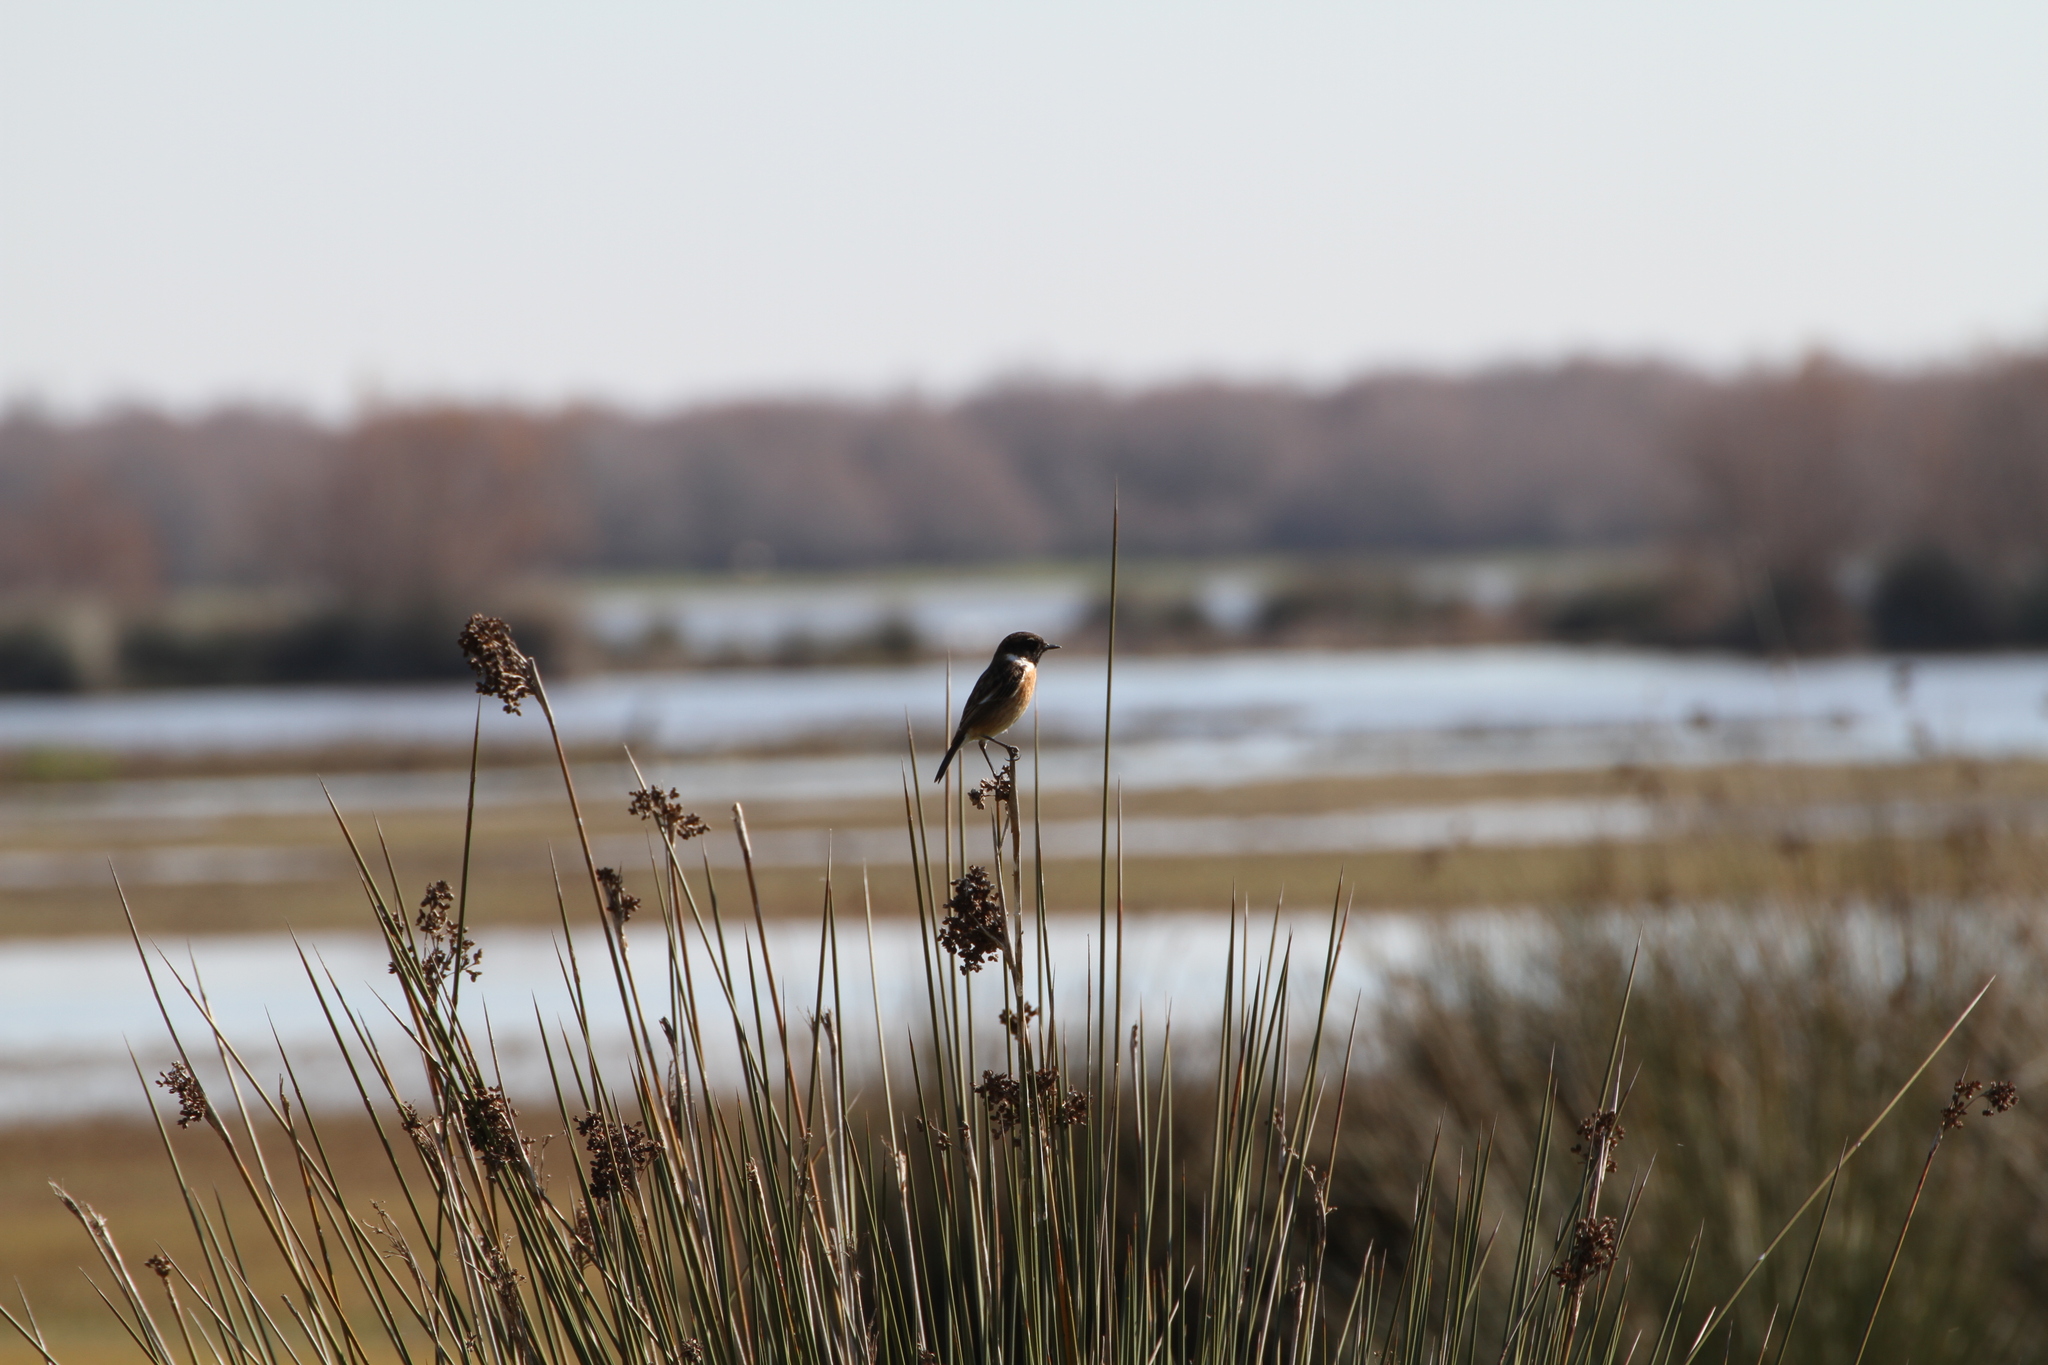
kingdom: Animalia
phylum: Chordata
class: Aves
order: Passeriformes
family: Muscicapidae
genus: Saxicola
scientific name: Saxicola rubicola
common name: European stonechat
